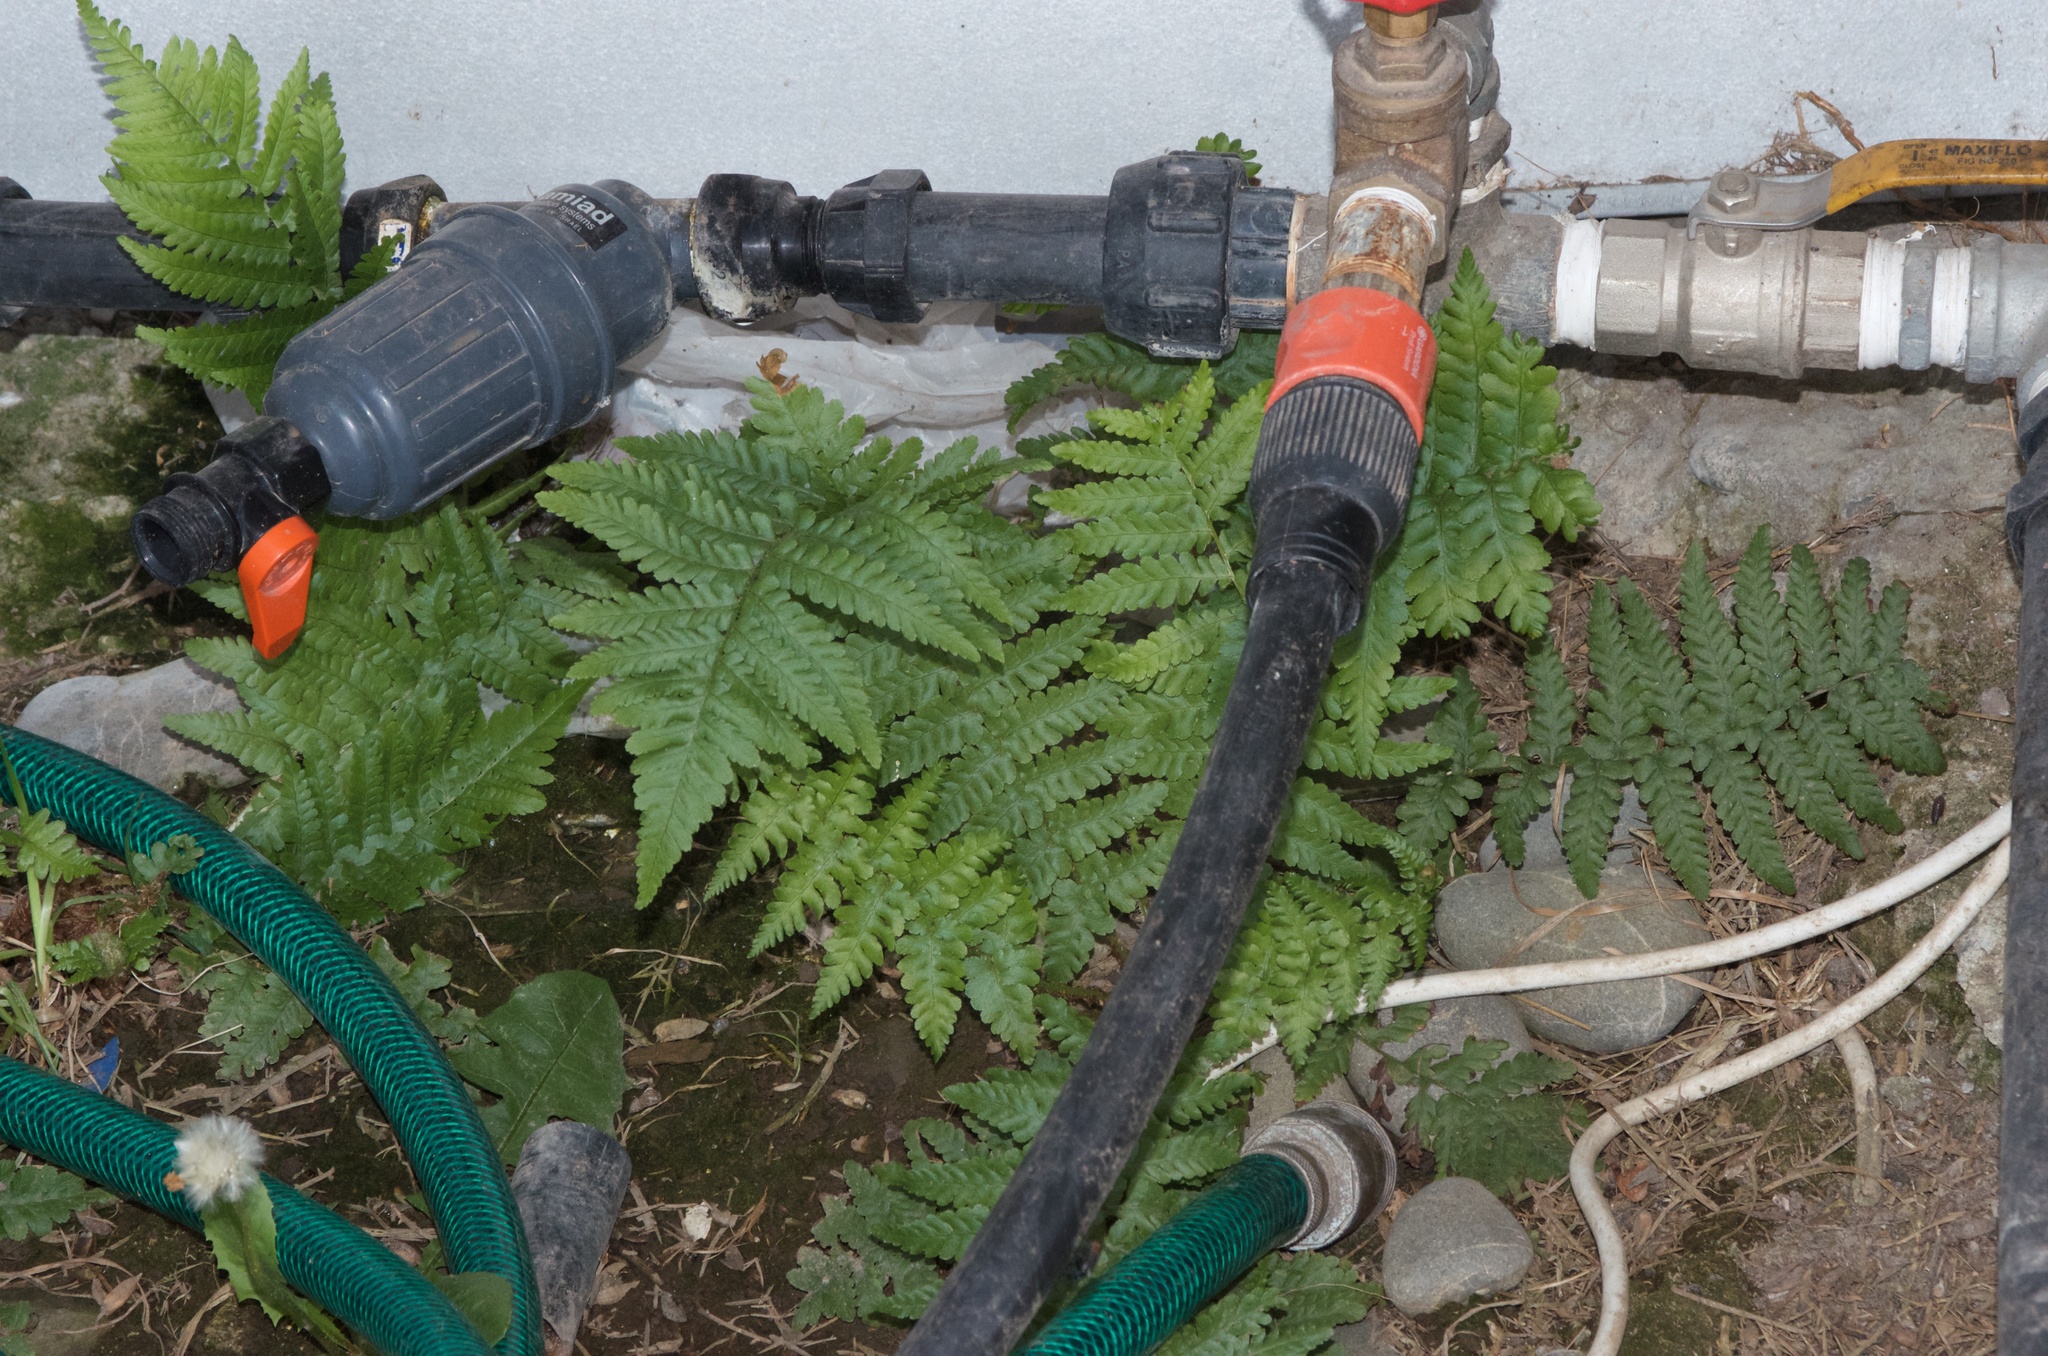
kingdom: Plantae
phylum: Tracheophyta
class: Polypodiopsida
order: Polypodiales
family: Dryopteridaceae
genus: Dryopteris
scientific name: Dryopteris filix-mas
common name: Male fern
